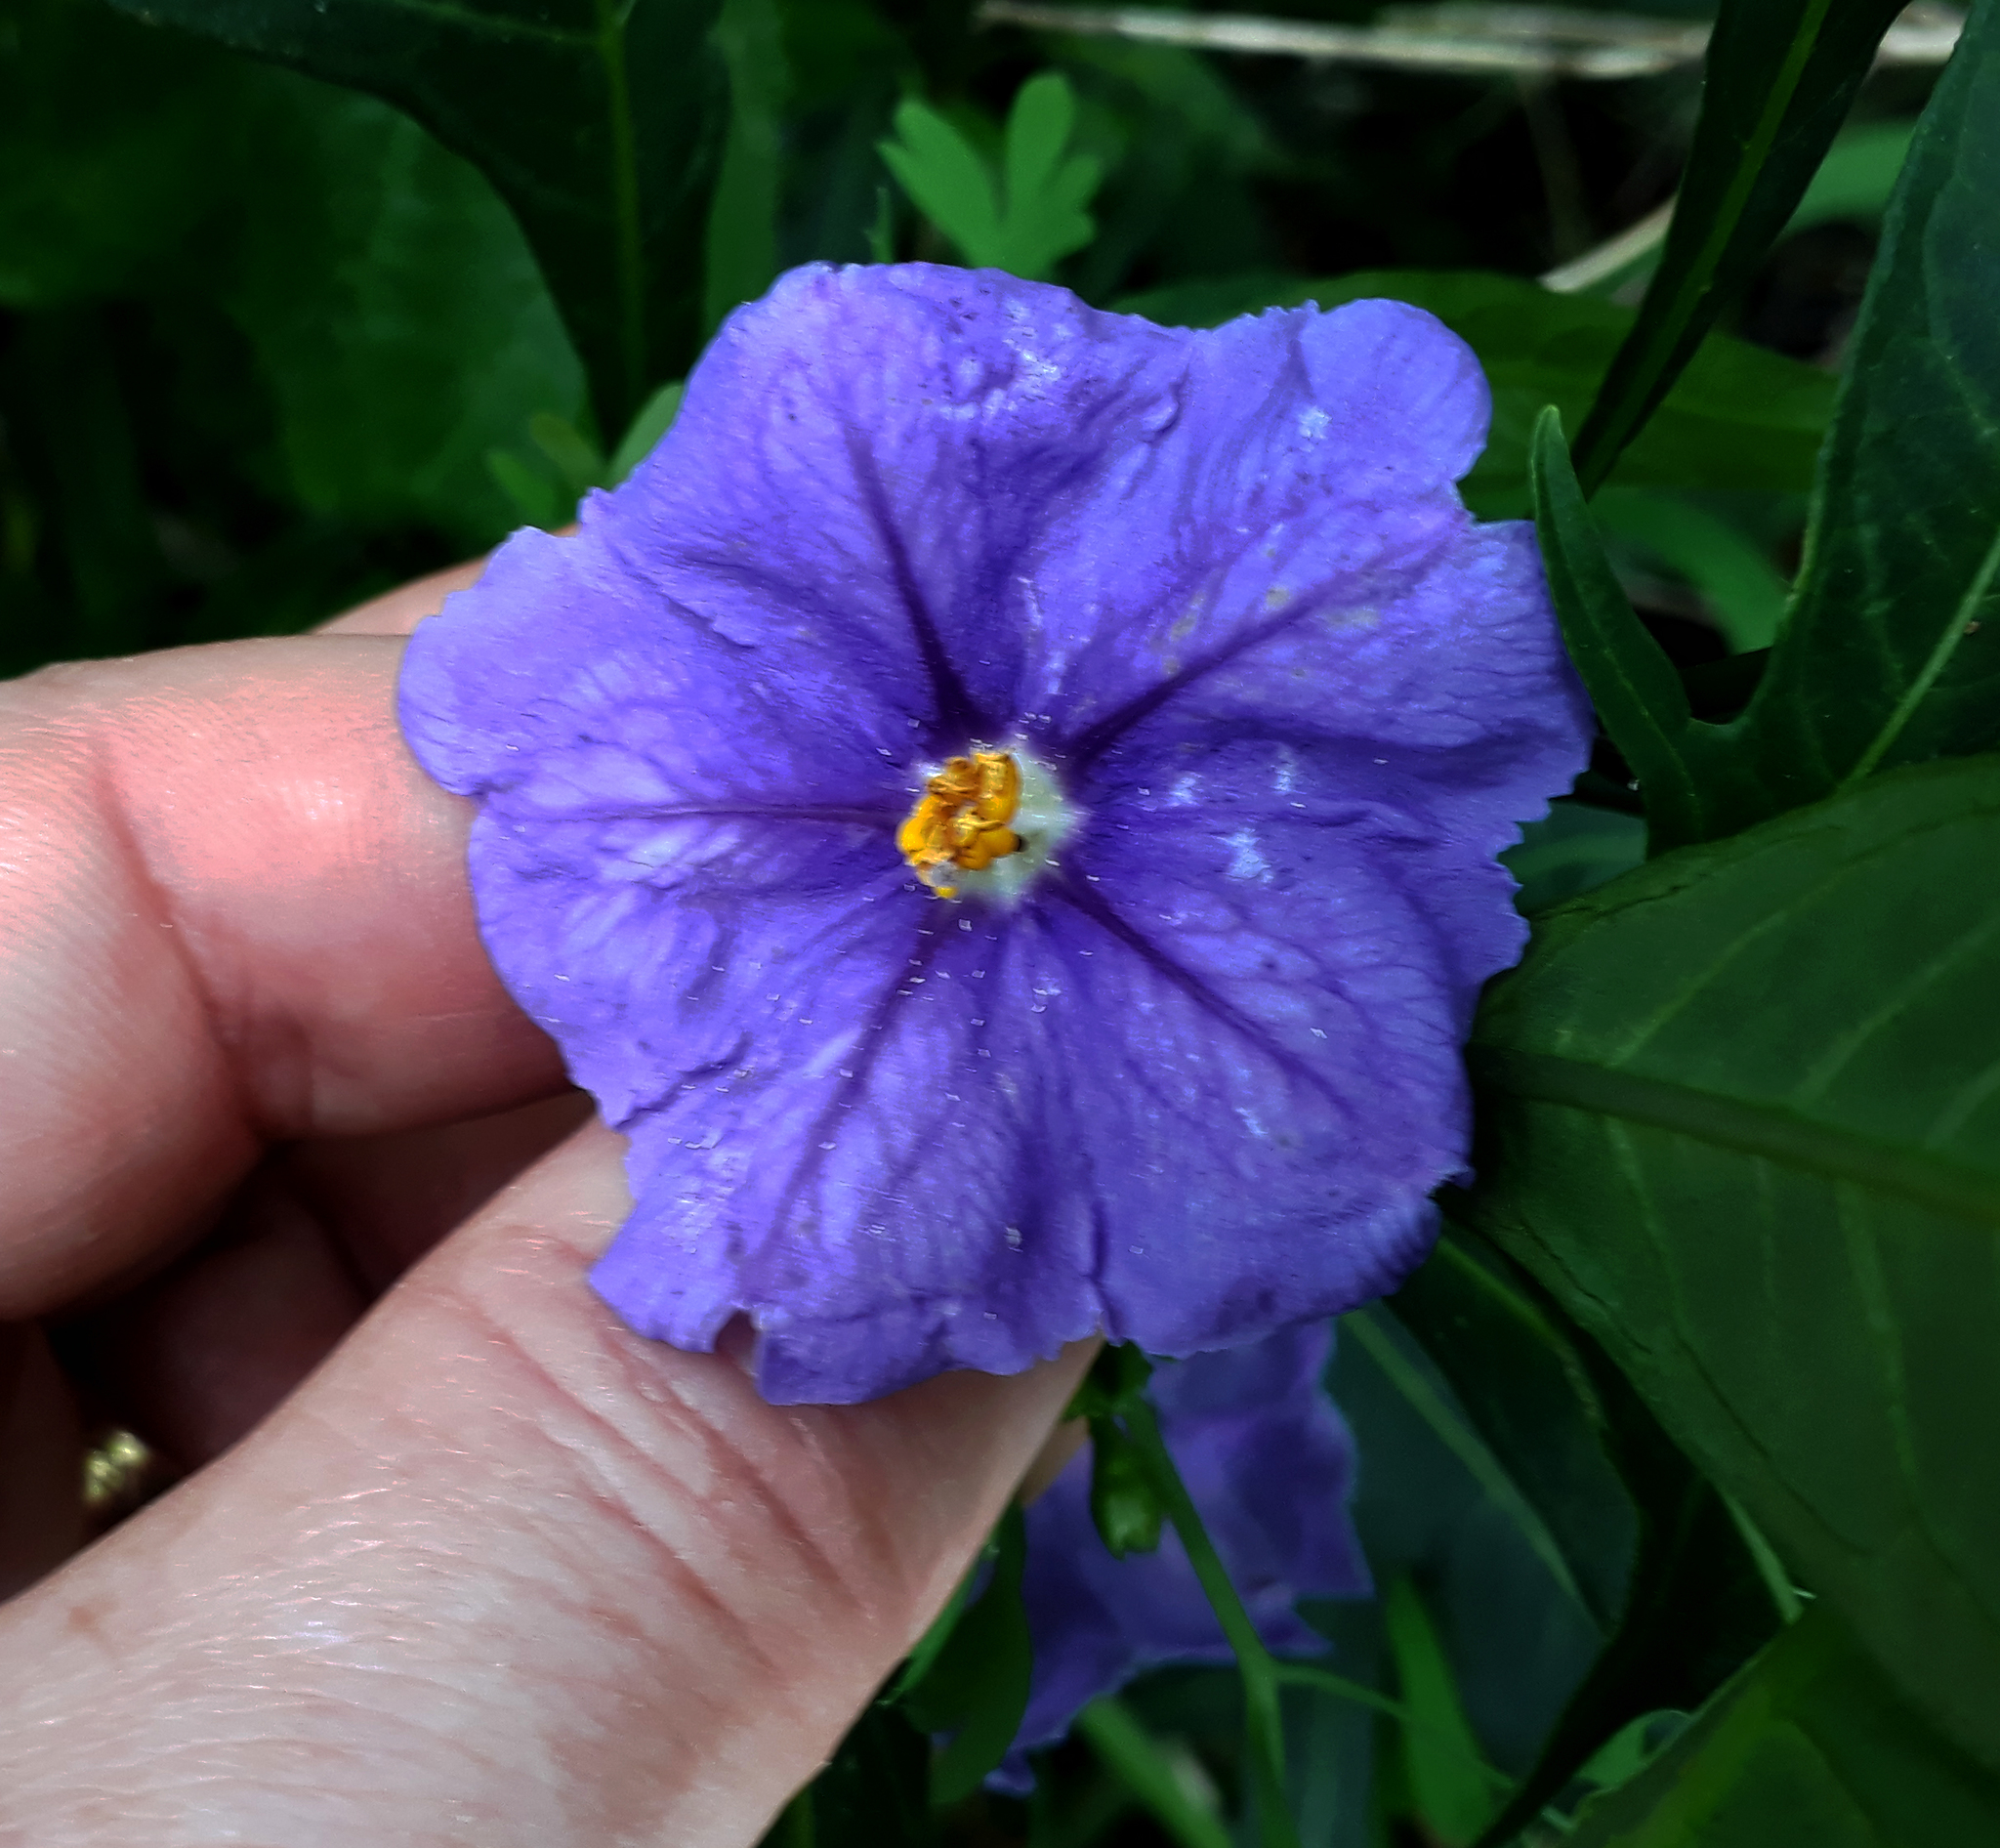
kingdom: Plantae
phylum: Tracheophyta
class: Magnoliopsida
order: Solanales
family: Solanaceae
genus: Solanum
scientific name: Solanum laciniatum
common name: Kangaroo-apple
